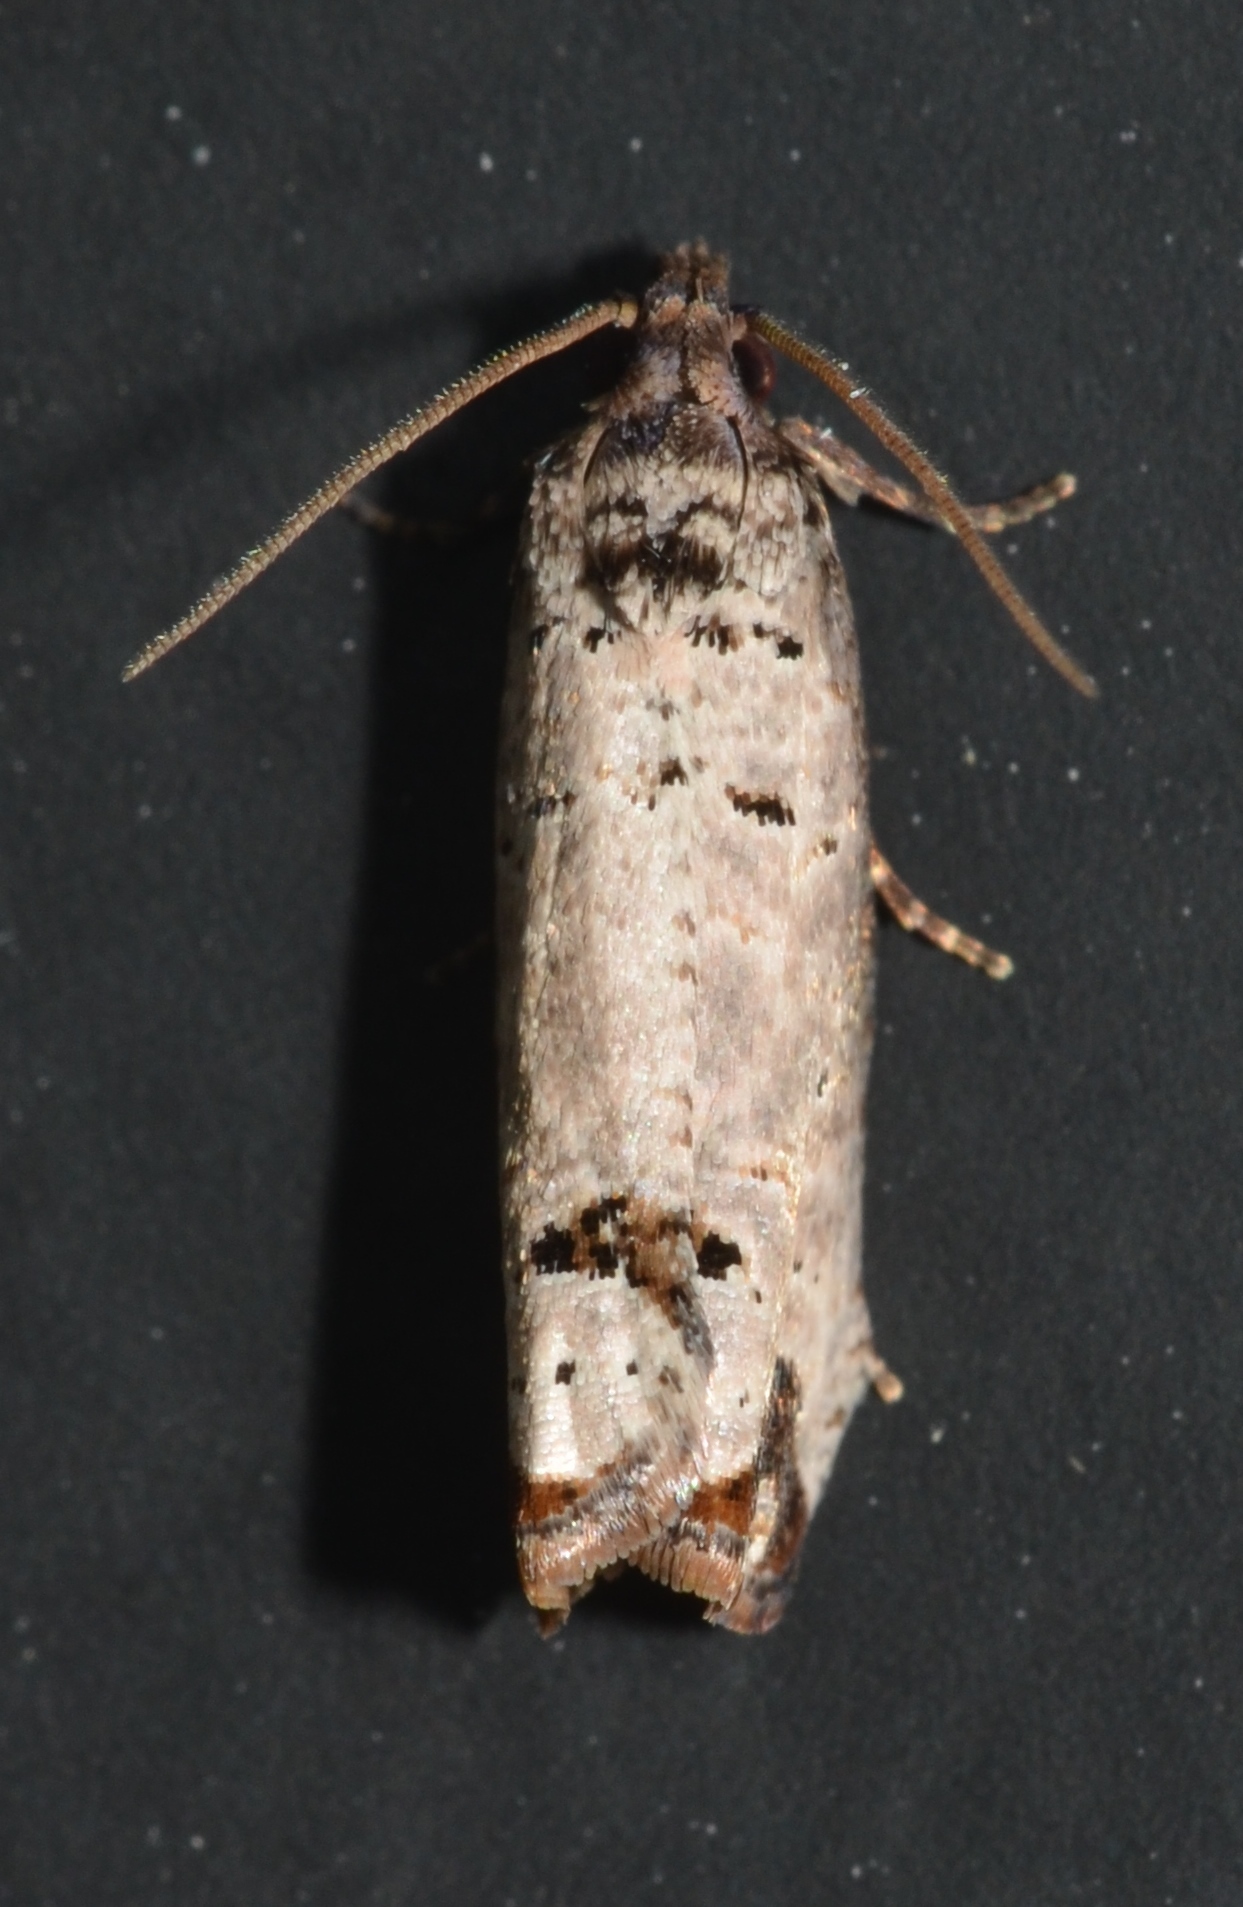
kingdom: Animalia
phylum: Arthropoda
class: Insecta
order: Lepidoptera
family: Tortricidae
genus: Notocelia
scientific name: Notocelia culminana
